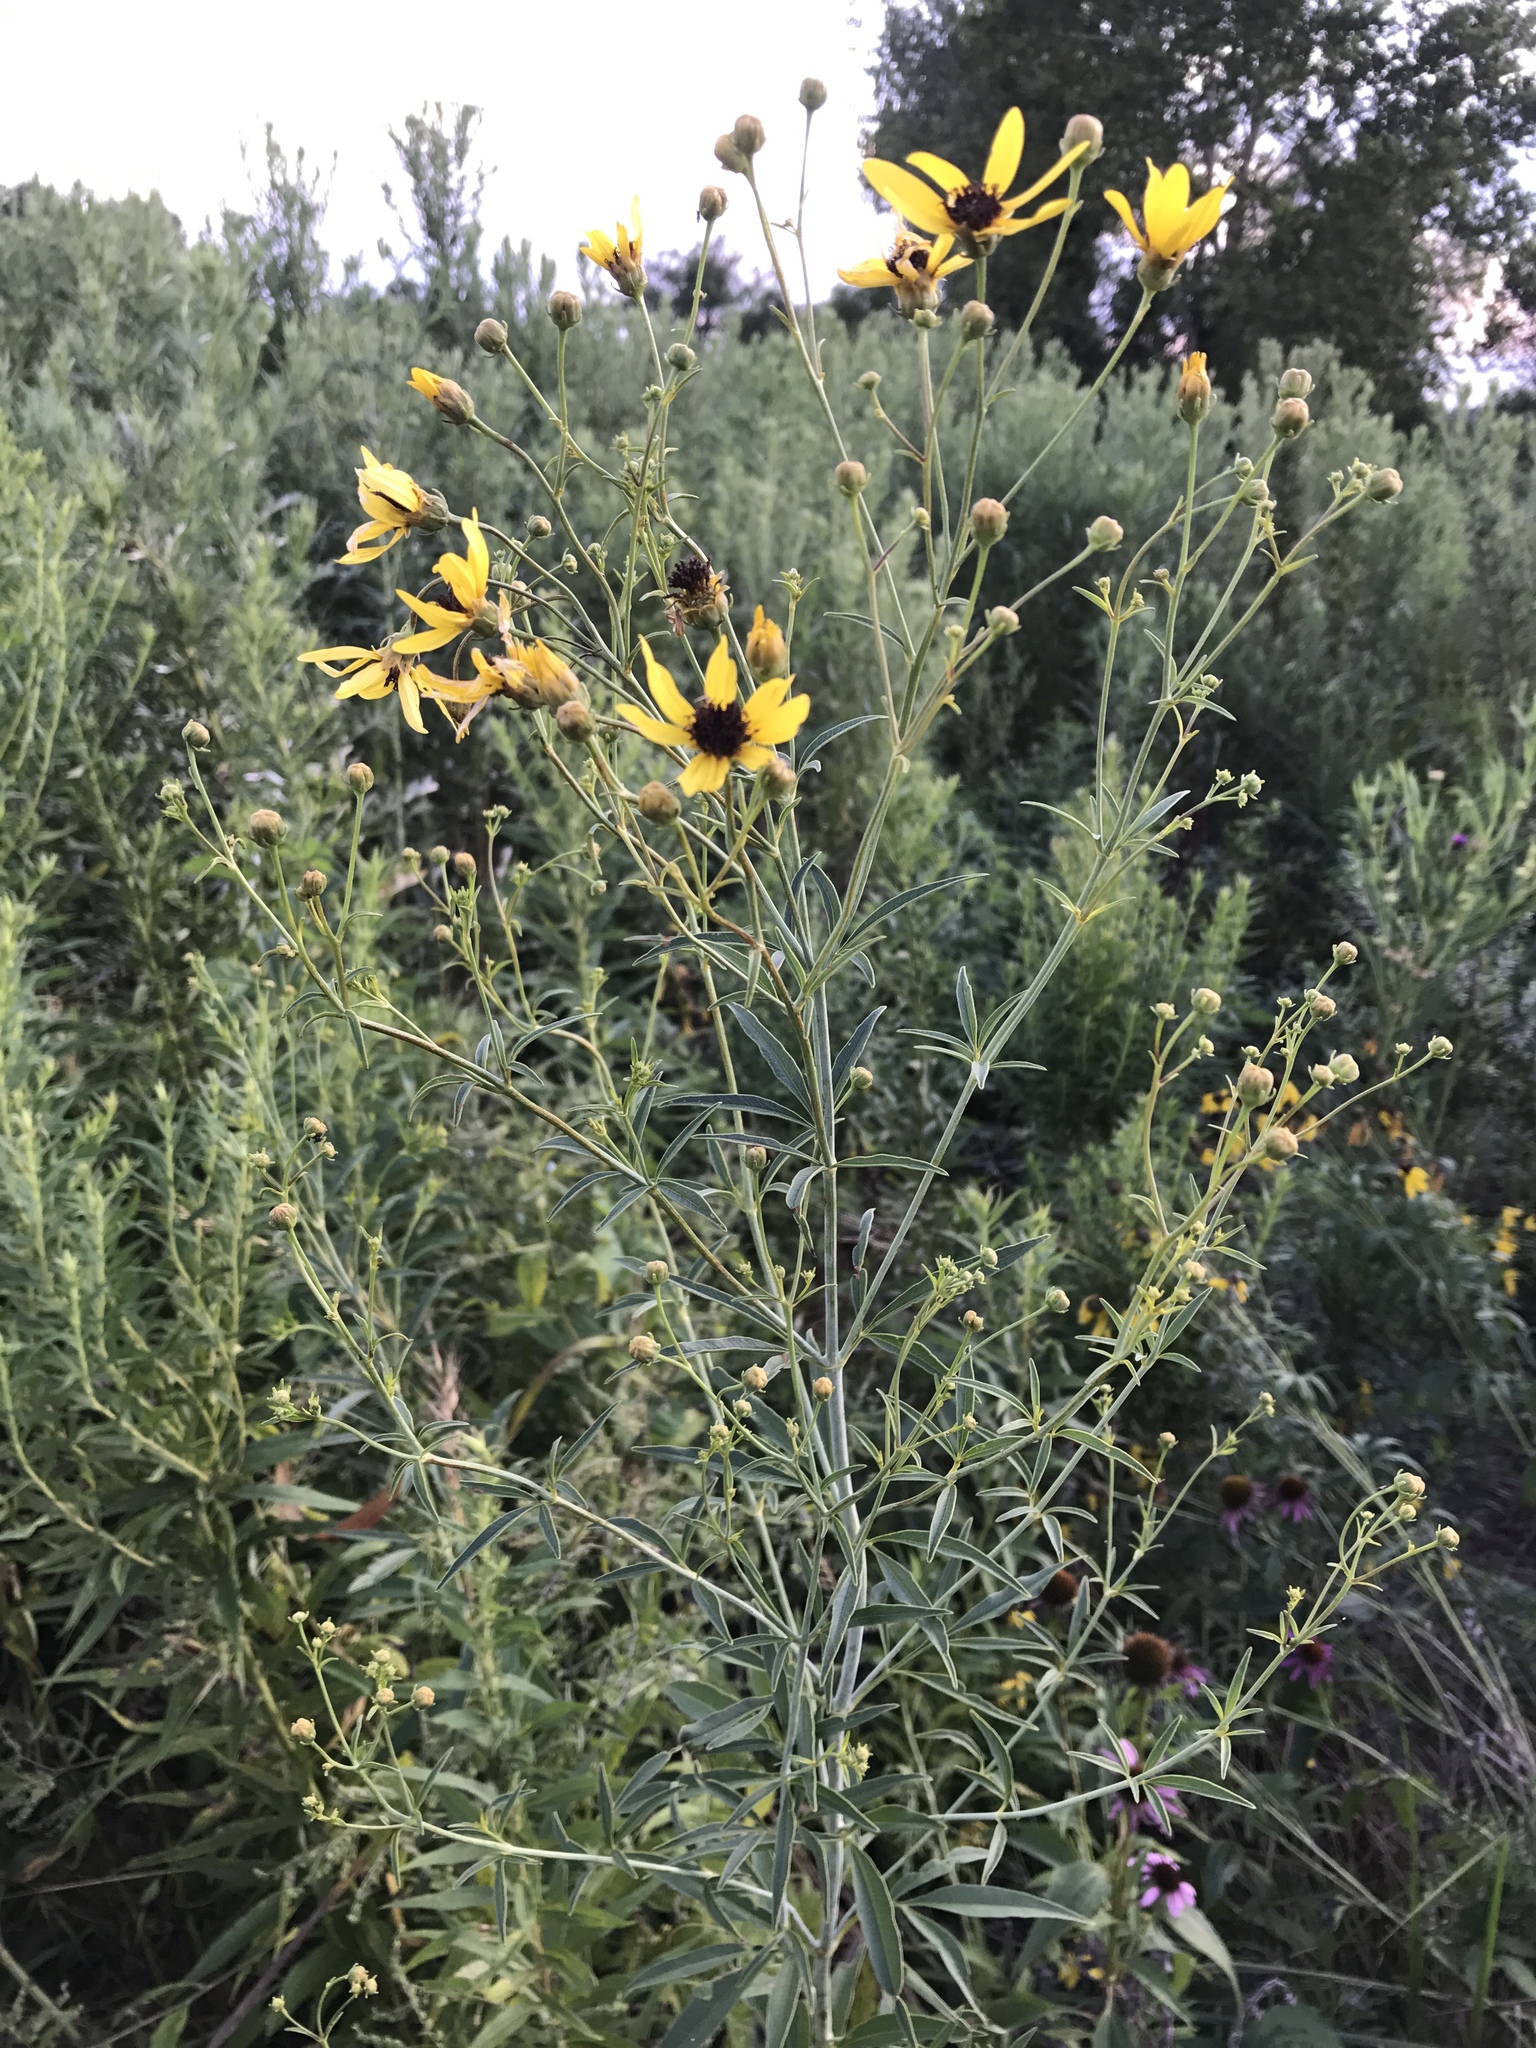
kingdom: Plantae
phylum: Tracheophyta
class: Magnoliopsida
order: Asterales
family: Asteraceae
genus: Coreopsis
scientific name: Coreopsis tripteris
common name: Tall coreopsis
